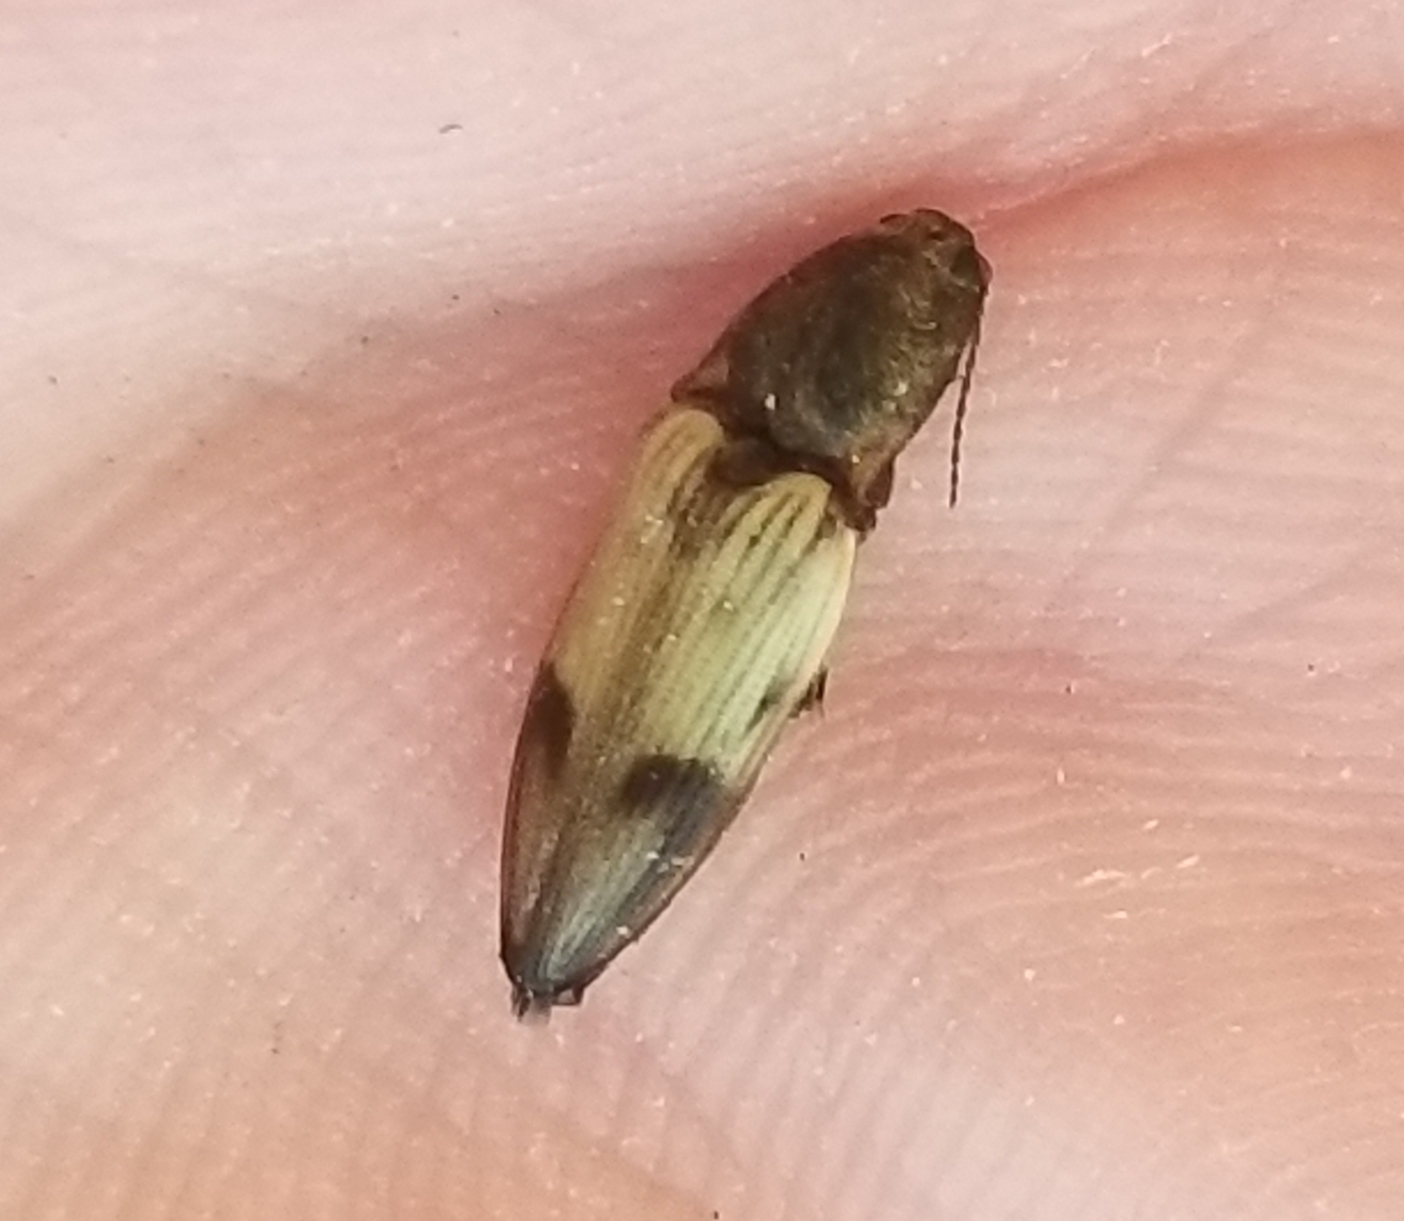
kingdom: Animalia
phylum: Arthropoda
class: Insecta
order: Coleoptera
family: Elateridae
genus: Stropenron
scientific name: Stropenron hamata
